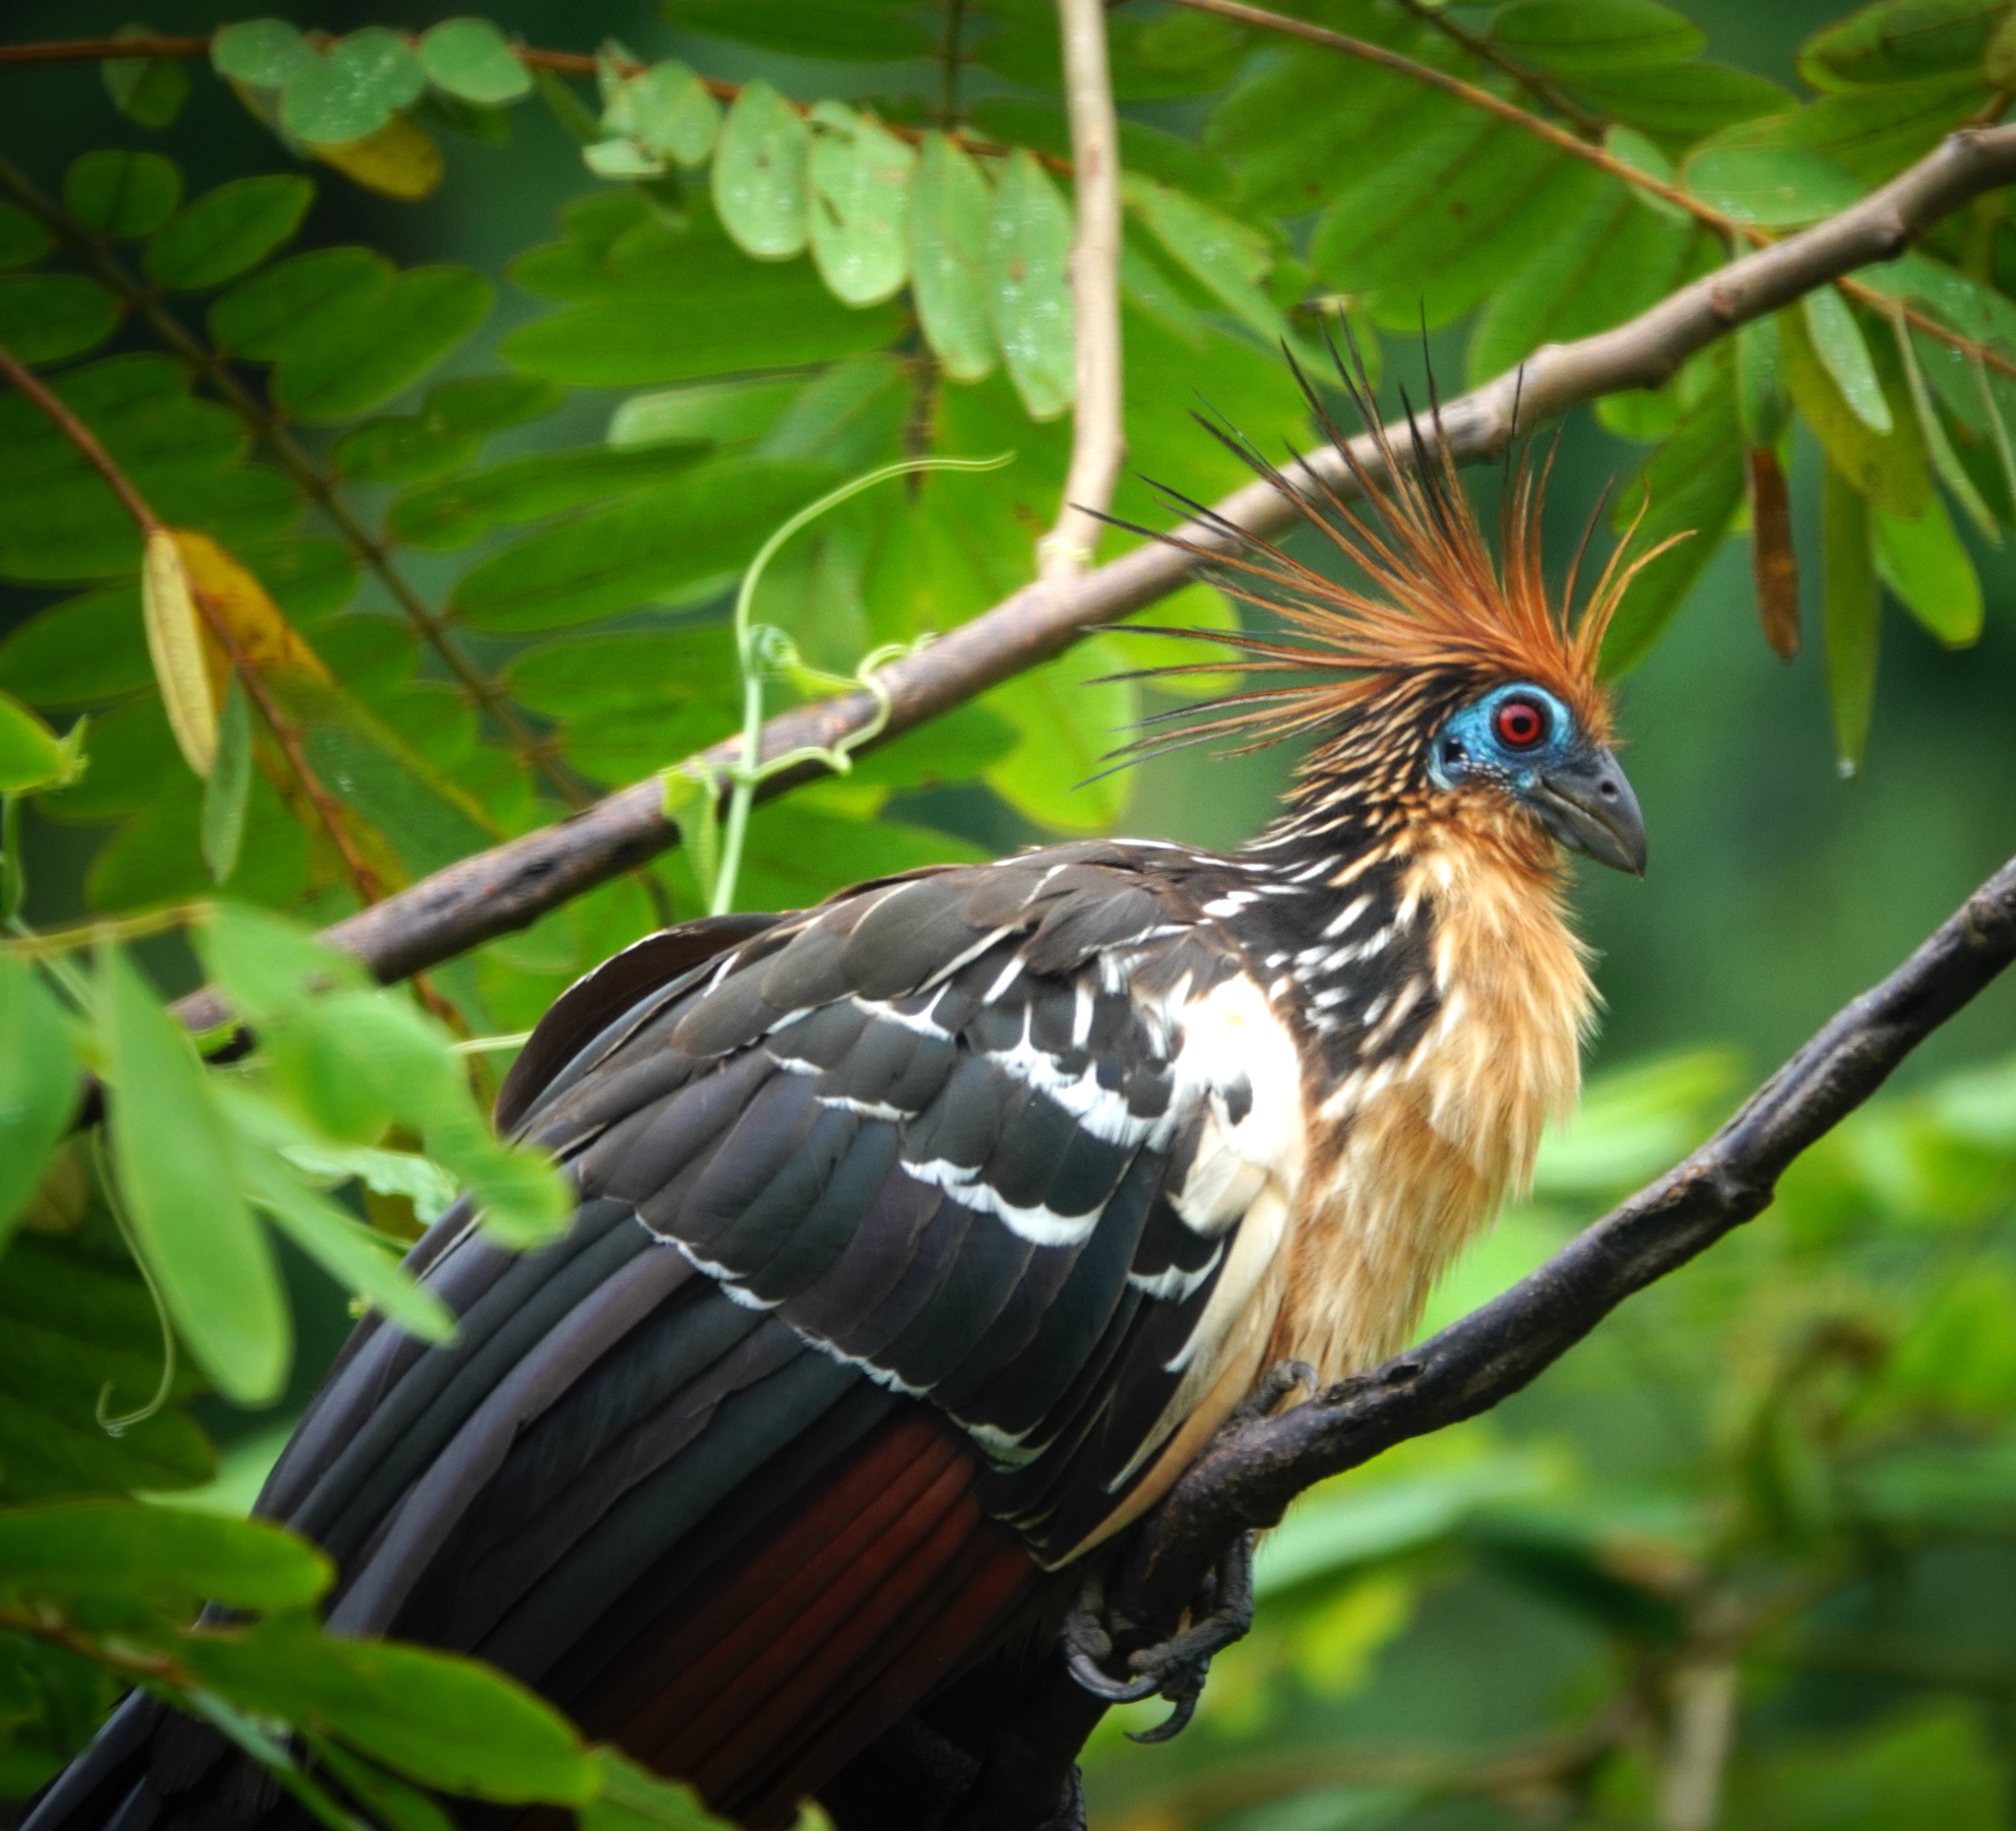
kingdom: Animalia
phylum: Chordata
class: Aves
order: Opisthocomiformes
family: Opisthocomidae
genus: Opisthocomus
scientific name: Opisthocomus hoazin
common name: Hoatzin
